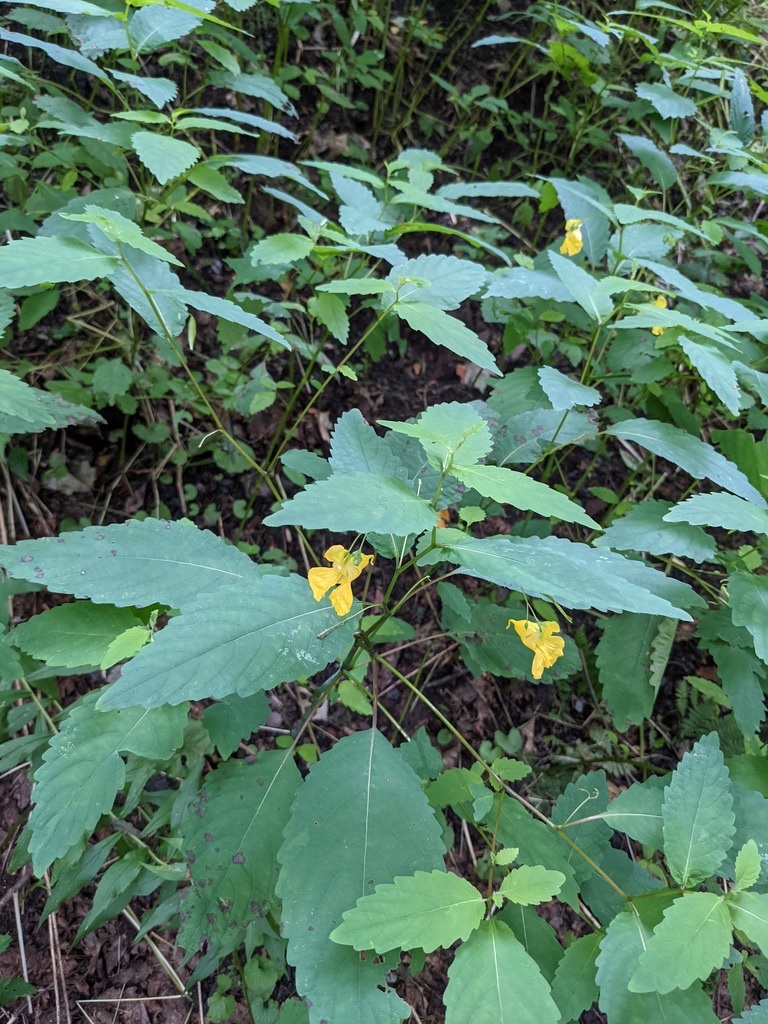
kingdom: Plantae
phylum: Tracheophyta
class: Magnoliopsida
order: Ericales
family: Balsaminaceae
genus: Impatiens
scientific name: Impatiens pallida
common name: Pale snapweed
